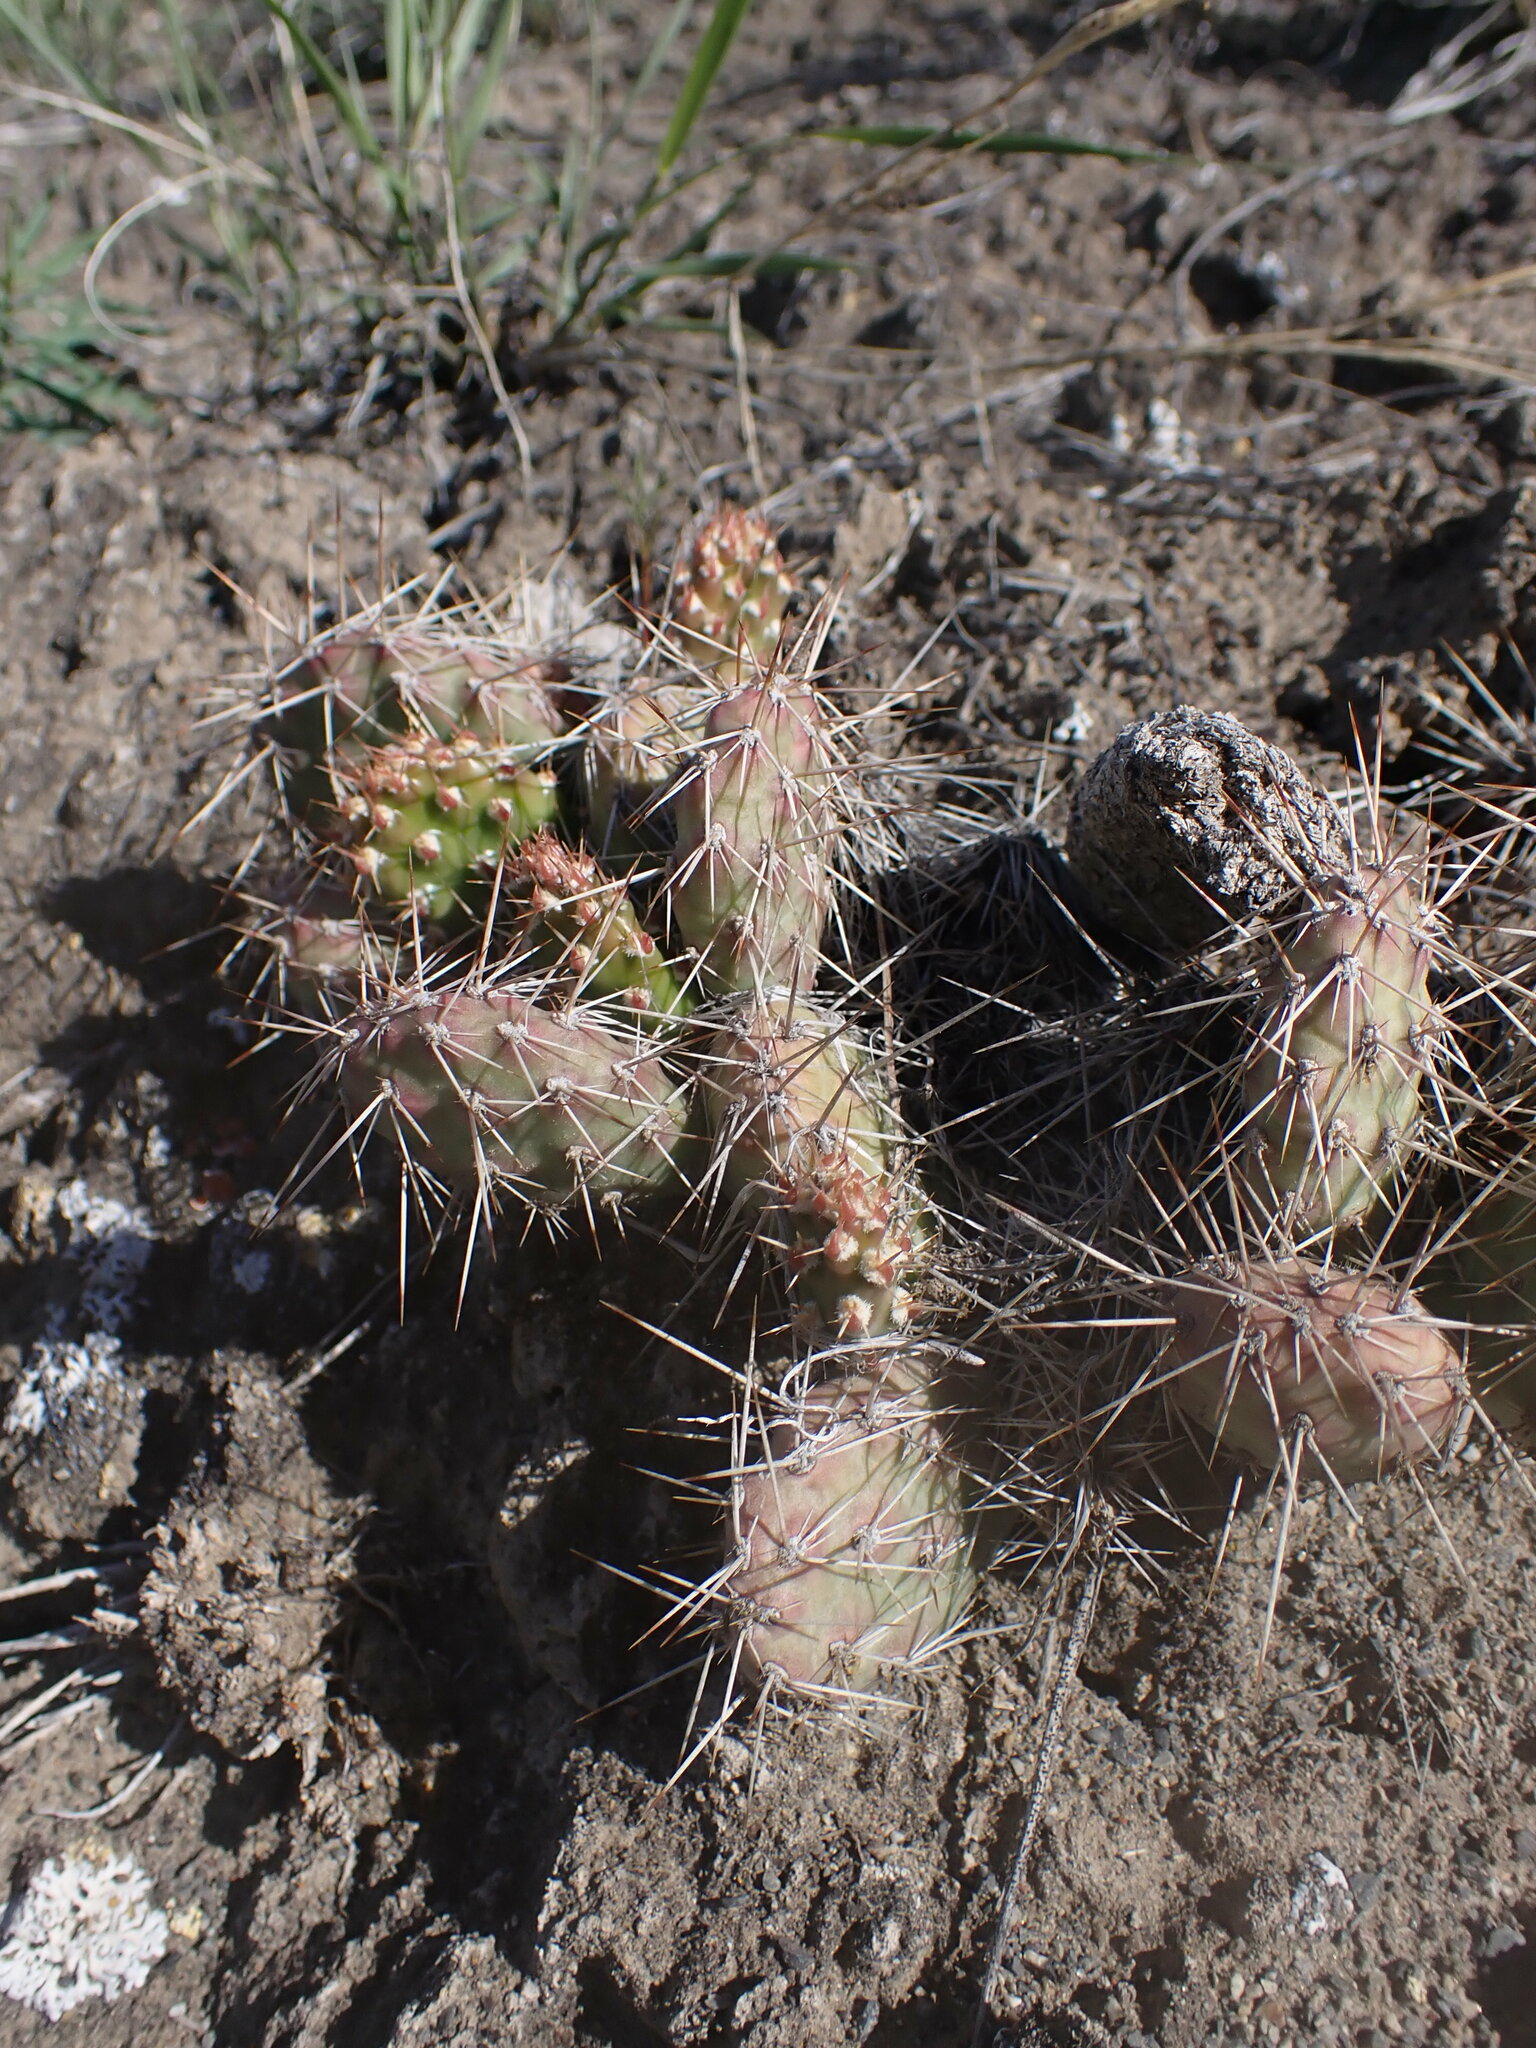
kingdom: Plantae
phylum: Tracheophyta
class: Magnoliopsida
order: Caryophyllales
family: Cactaceae
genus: Opuntia
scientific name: Opuntia fragilis
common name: Brittle cactus
